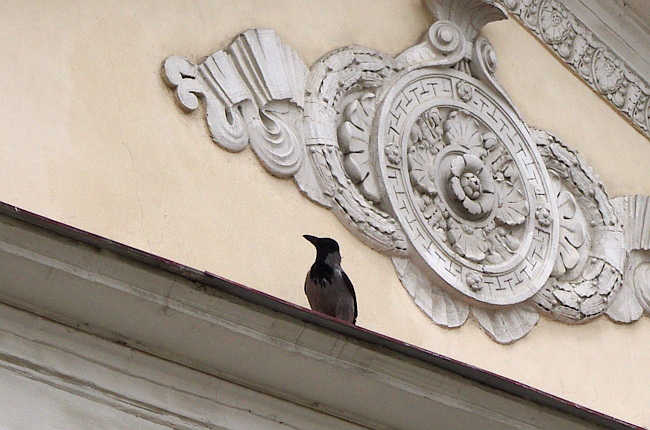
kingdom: Animalia
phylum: Chordata
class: Aves
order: Passeriformes
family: Corvidae
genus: Corvus
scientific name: Corvus cornix
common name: Hooded crow
